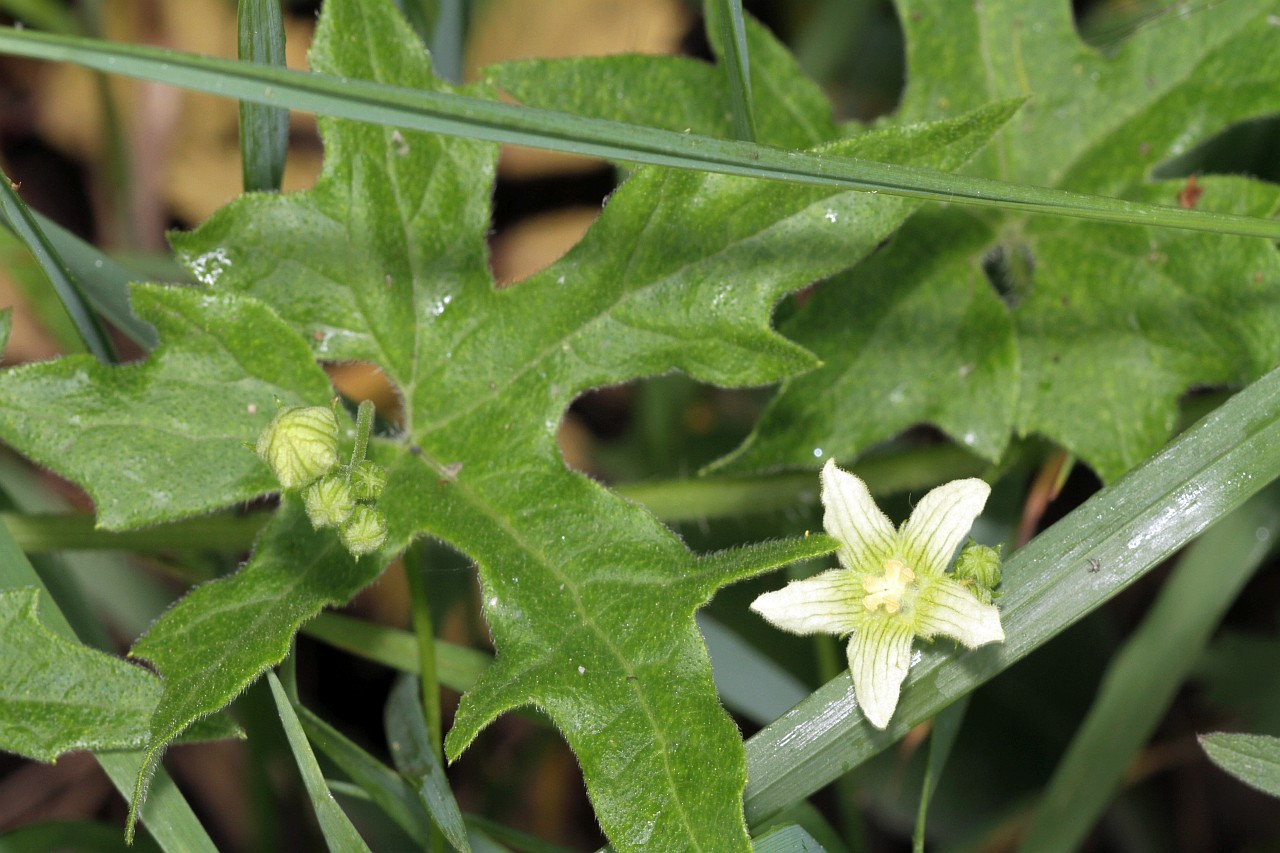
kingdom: Plantae
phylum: Tracheophyta
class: Magnoliopsida
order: Cucurbitales
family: Cucurbitaceae
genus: Bryonia
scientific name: Bryonia cretica
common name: Cretan bryony
